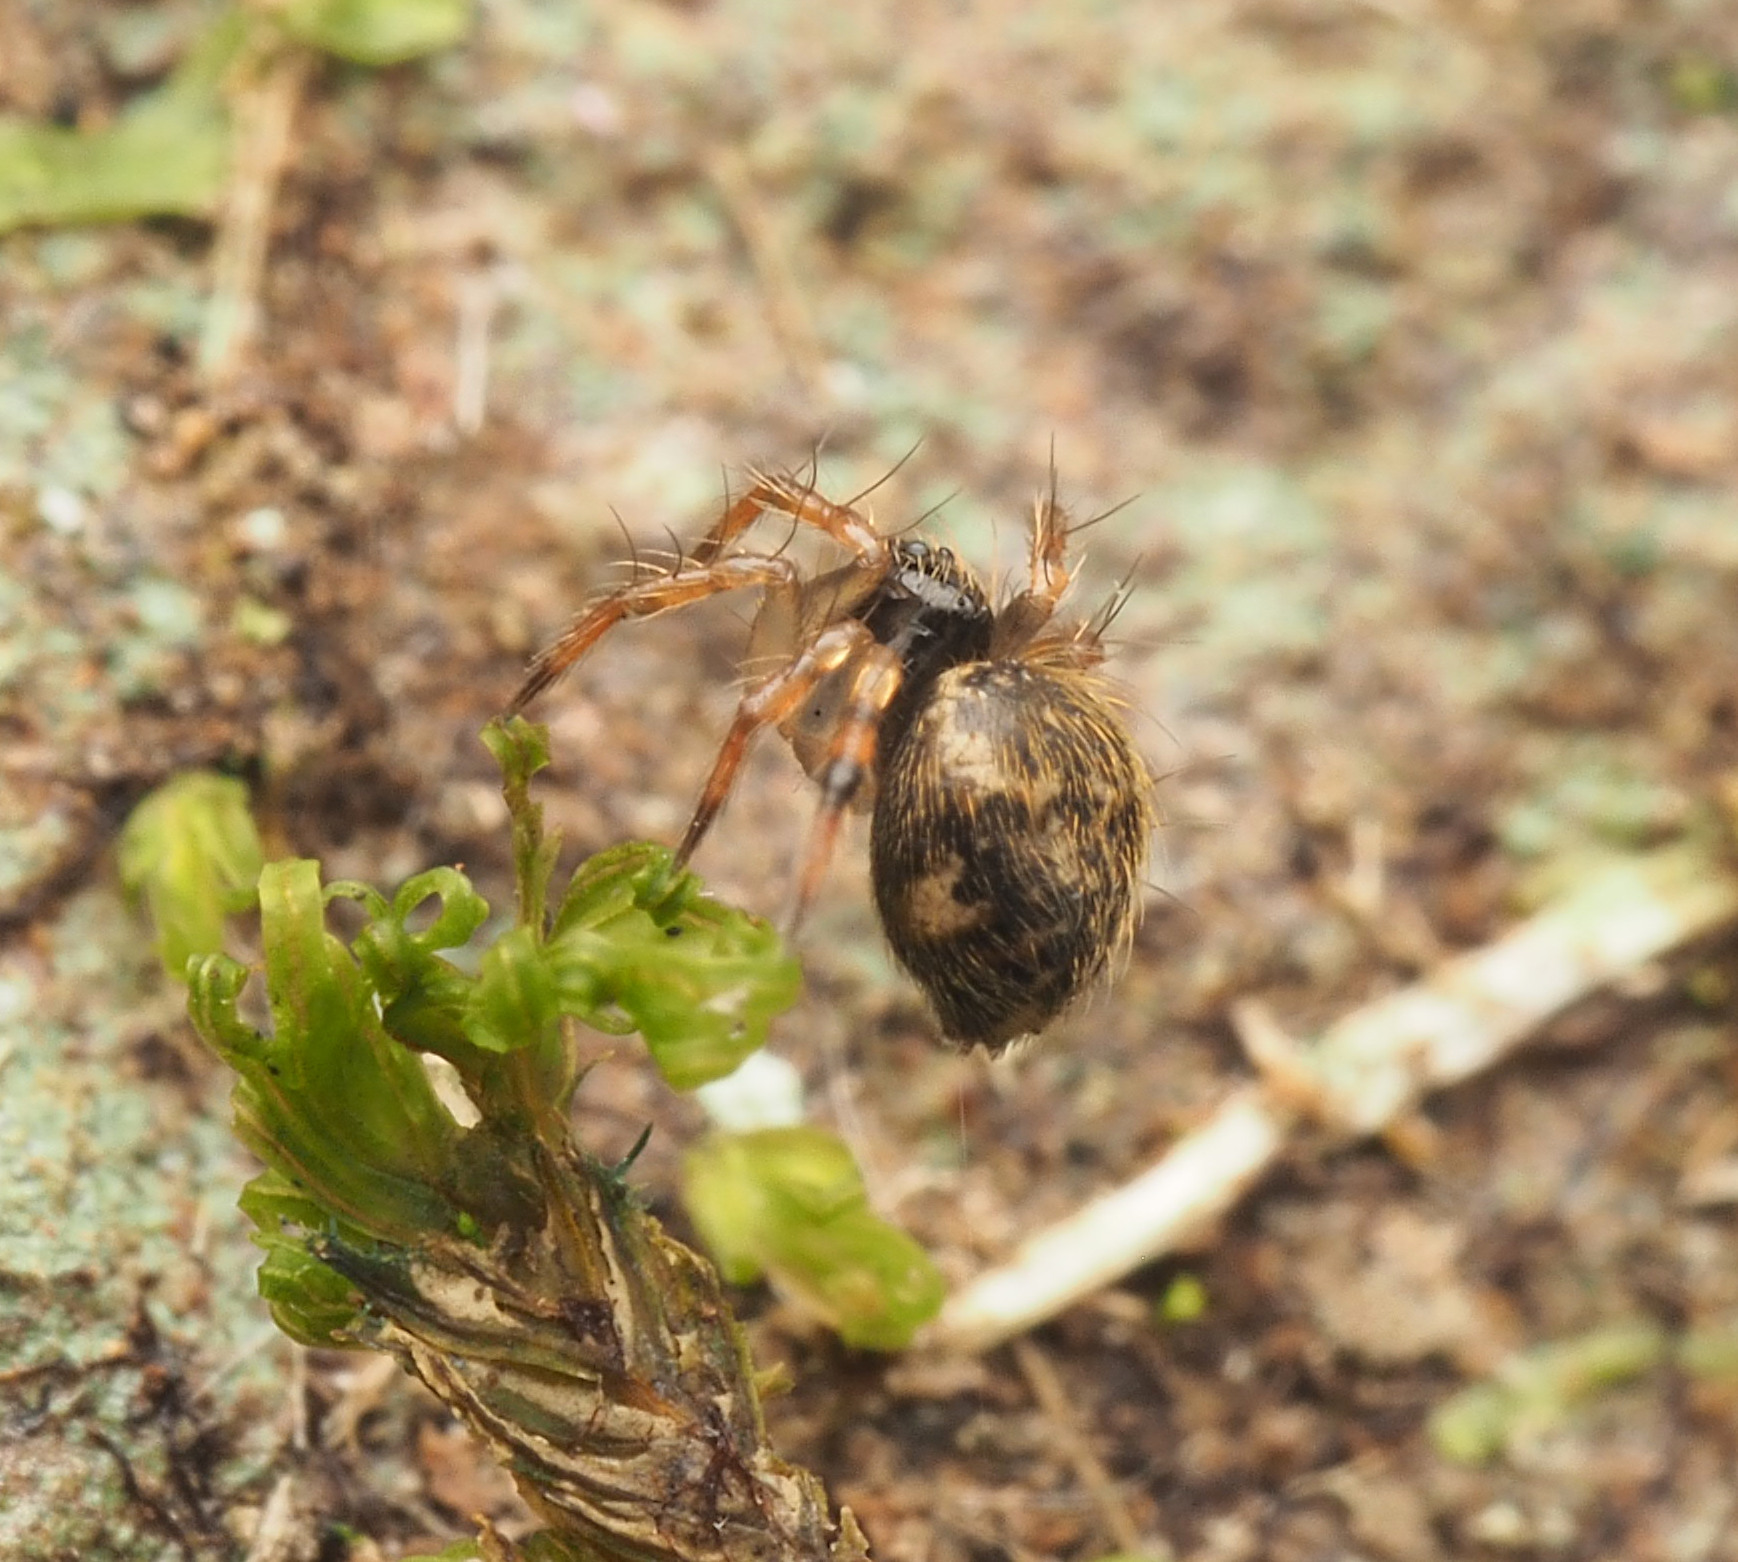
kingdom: Animalia
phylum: Arthropoda
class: Arachnida
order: Araneae
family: Theridiidae
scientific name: Theridiidae
